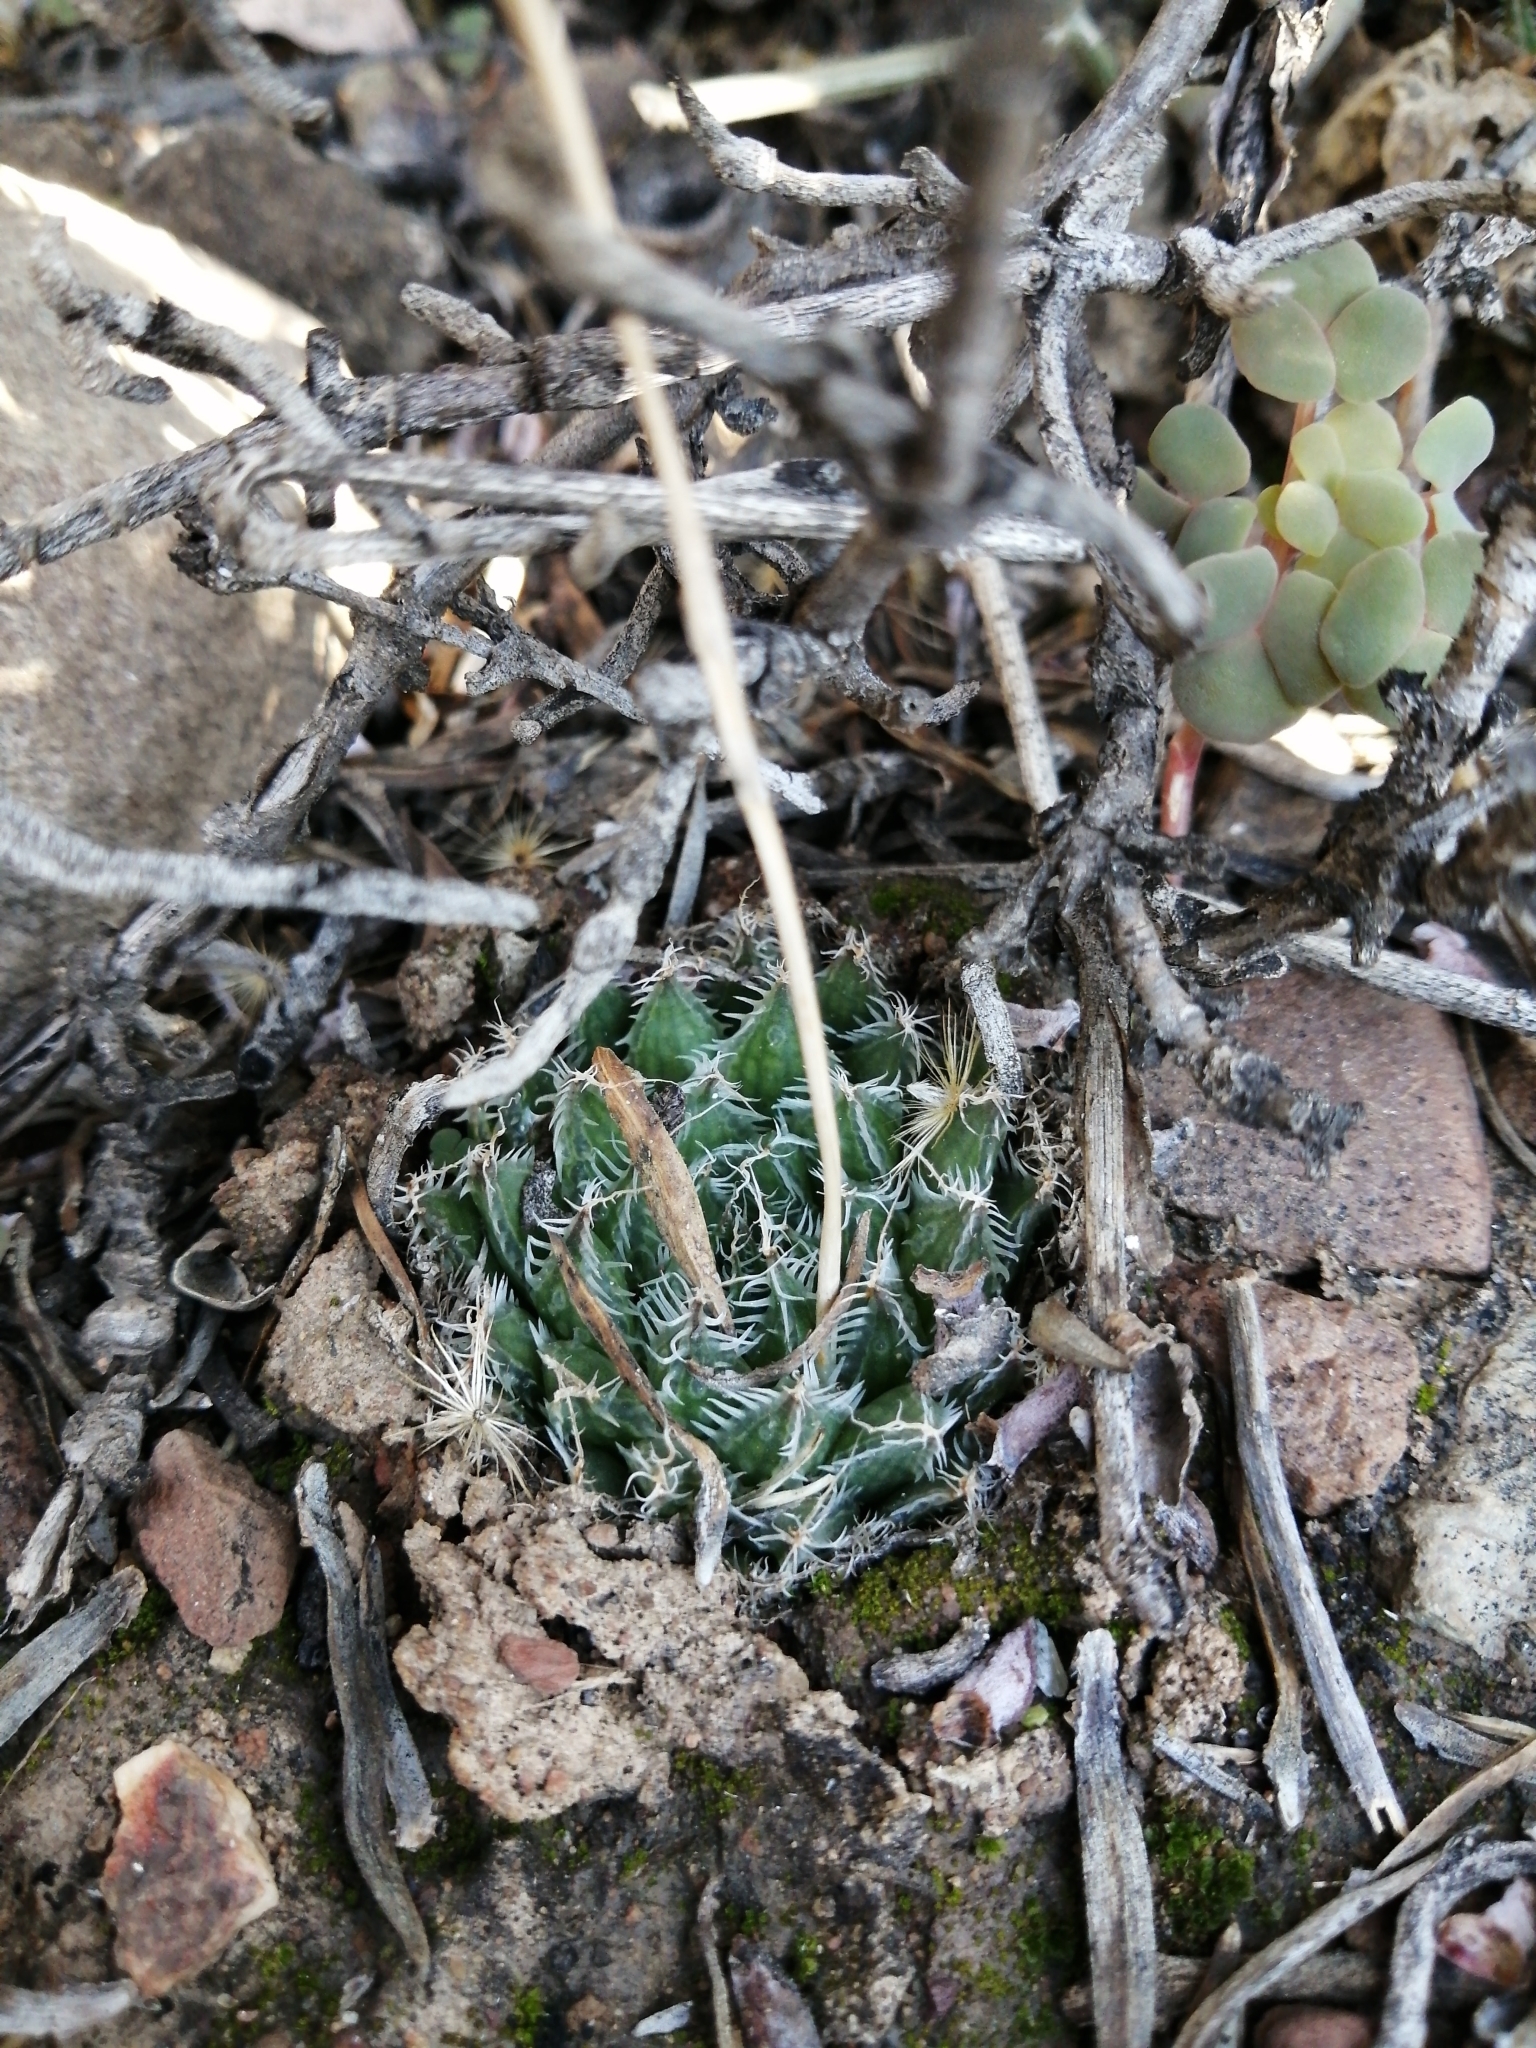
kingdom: Plantae
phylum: Tracheophyta
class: Liliopsida
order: Asparagales
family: Asphodelaceae
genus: Haworthia
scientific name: Haworthia arachnoidea
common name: Cobweb-aloe
